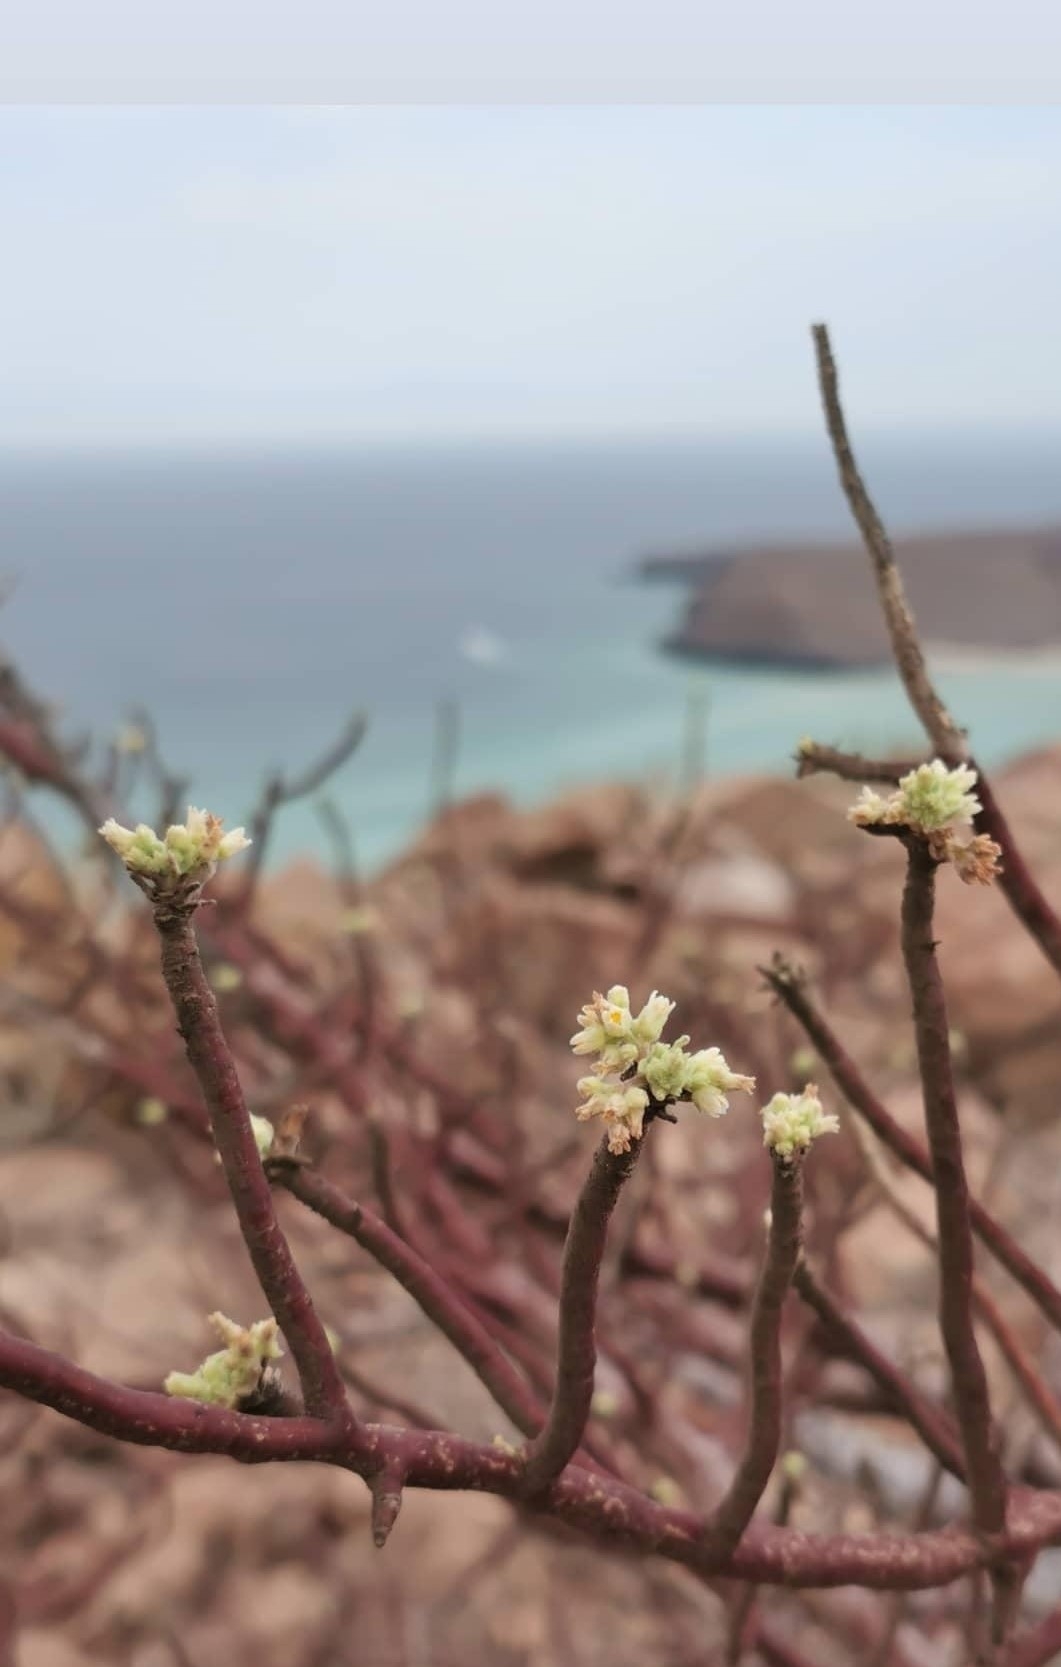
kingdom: Plantae
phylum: Tracheophyta
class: Magnoliopsida
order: Sapindales
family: Burseraceae
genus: Bursera
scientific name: Bursera hindsiana
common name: Red elephant tree
